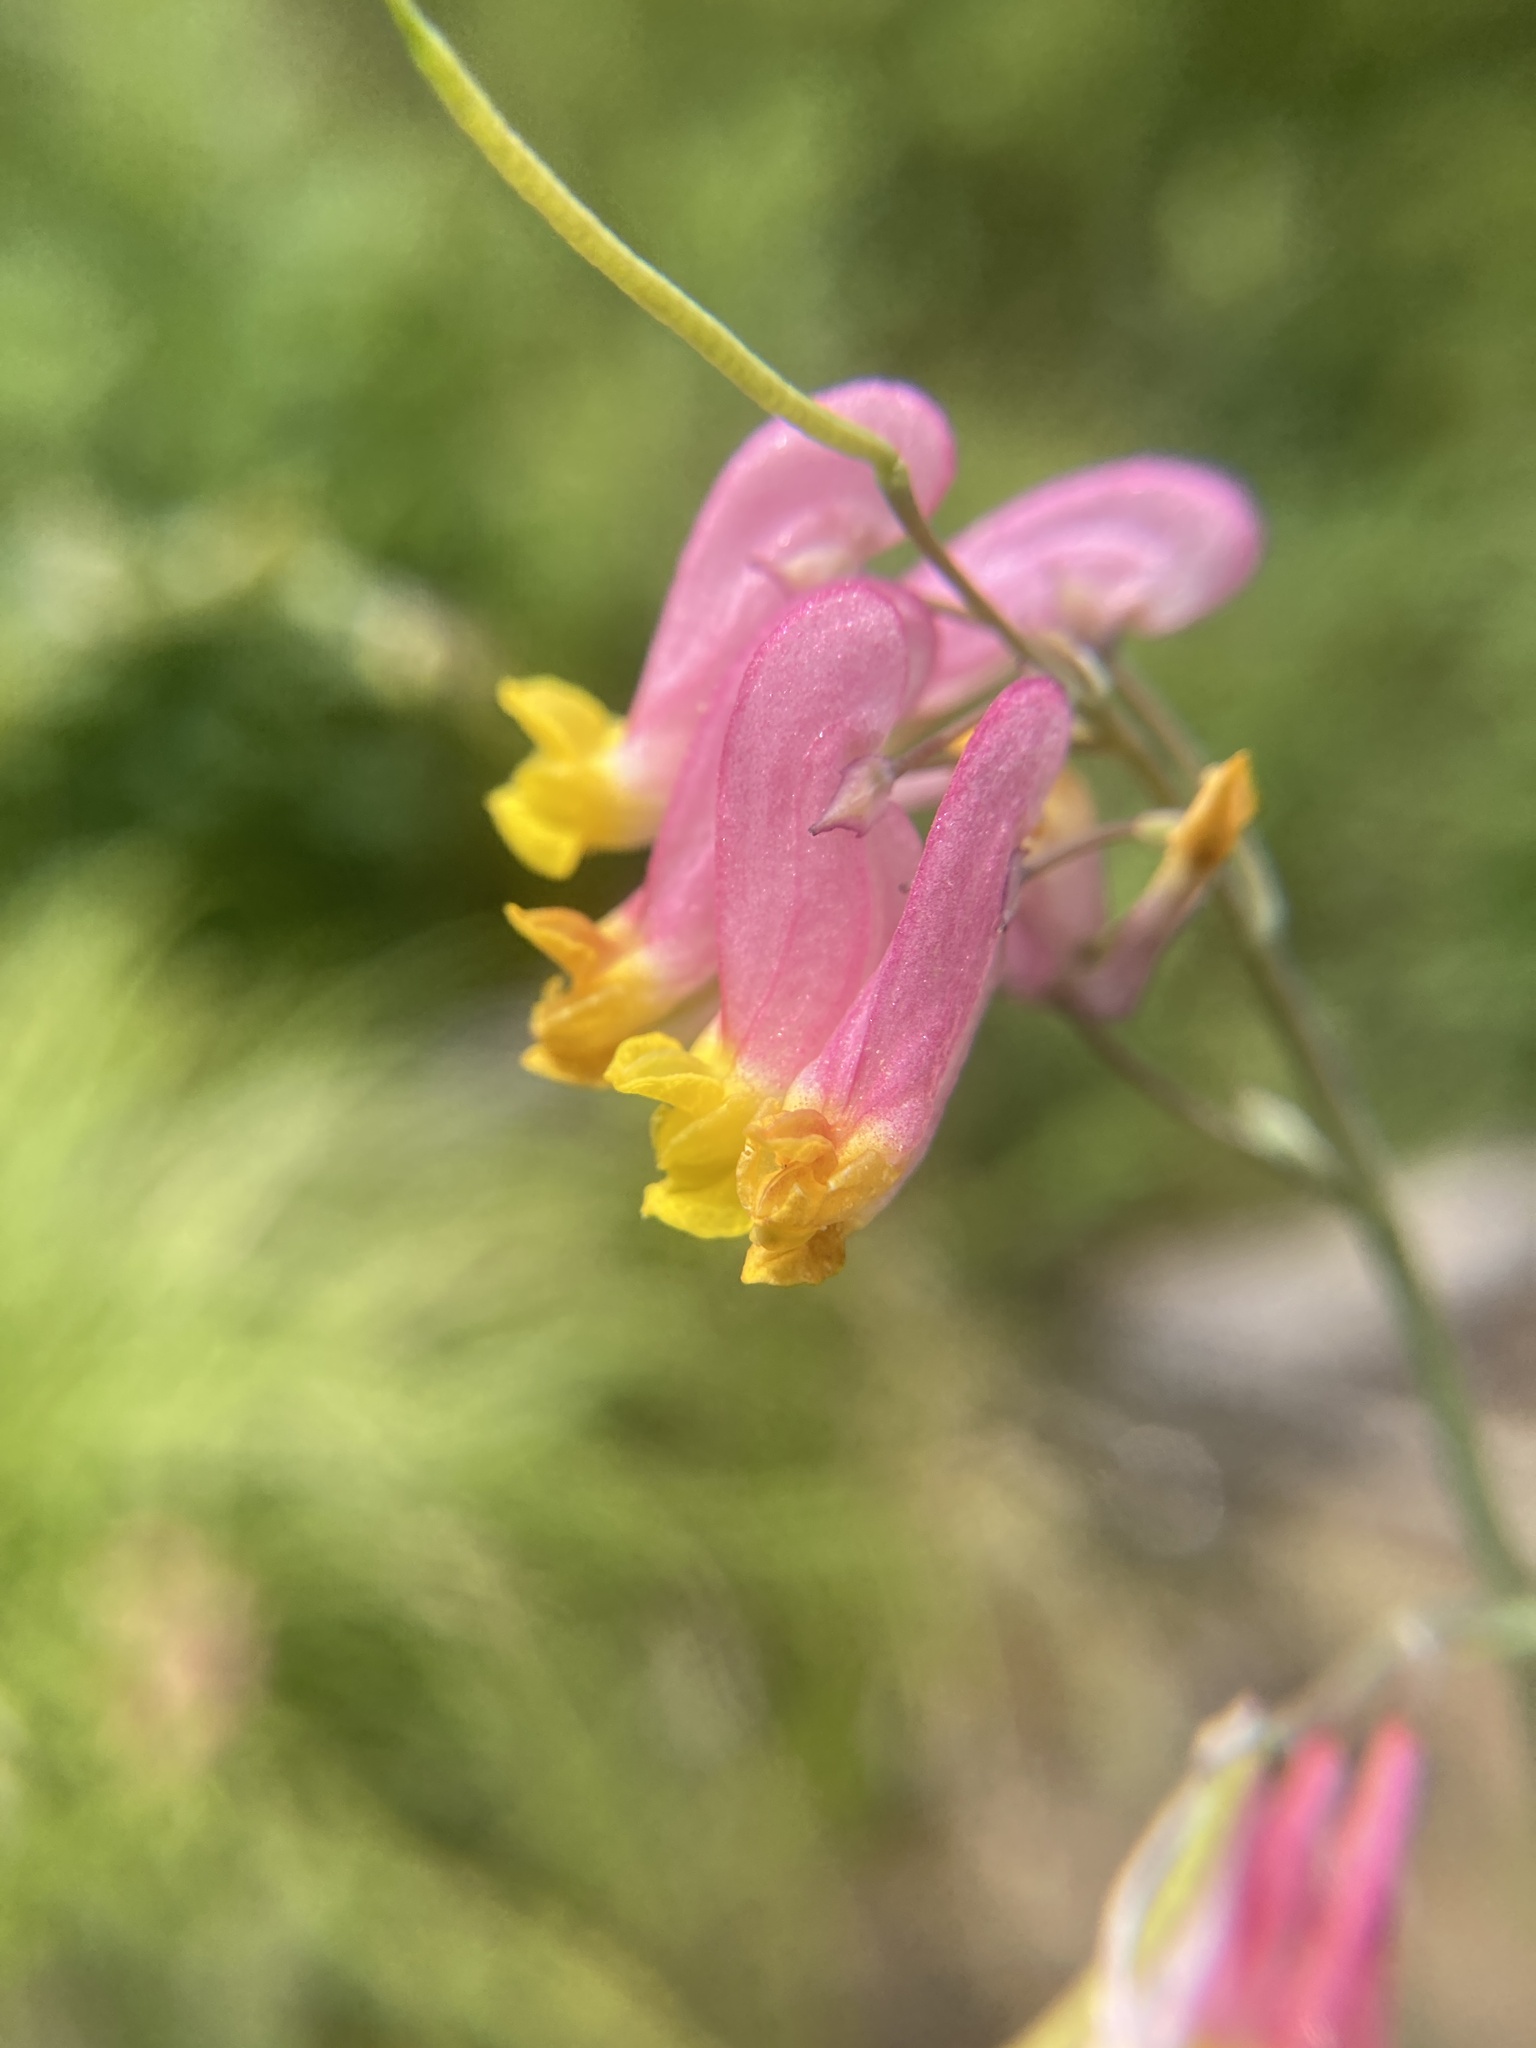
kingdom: Plantae
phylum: Tracheophyta
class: Magnoliopsida
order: Ranunculales
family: Papaveraceae
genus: Capnoides
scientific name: Capnoides sempervirens
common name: Rock harlequin
